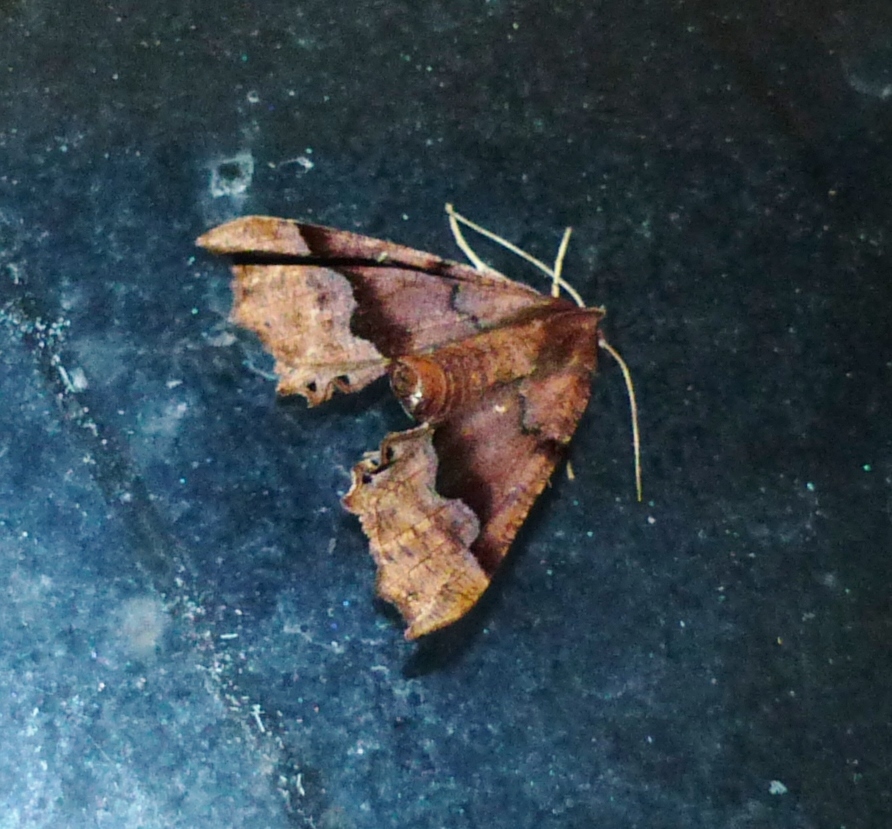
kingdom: Animalia
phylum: Arthropoda
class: Insecta
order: Lepidoptera
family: Geometridae
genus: Pero
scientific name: Pero honestaria
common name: Honest pero
